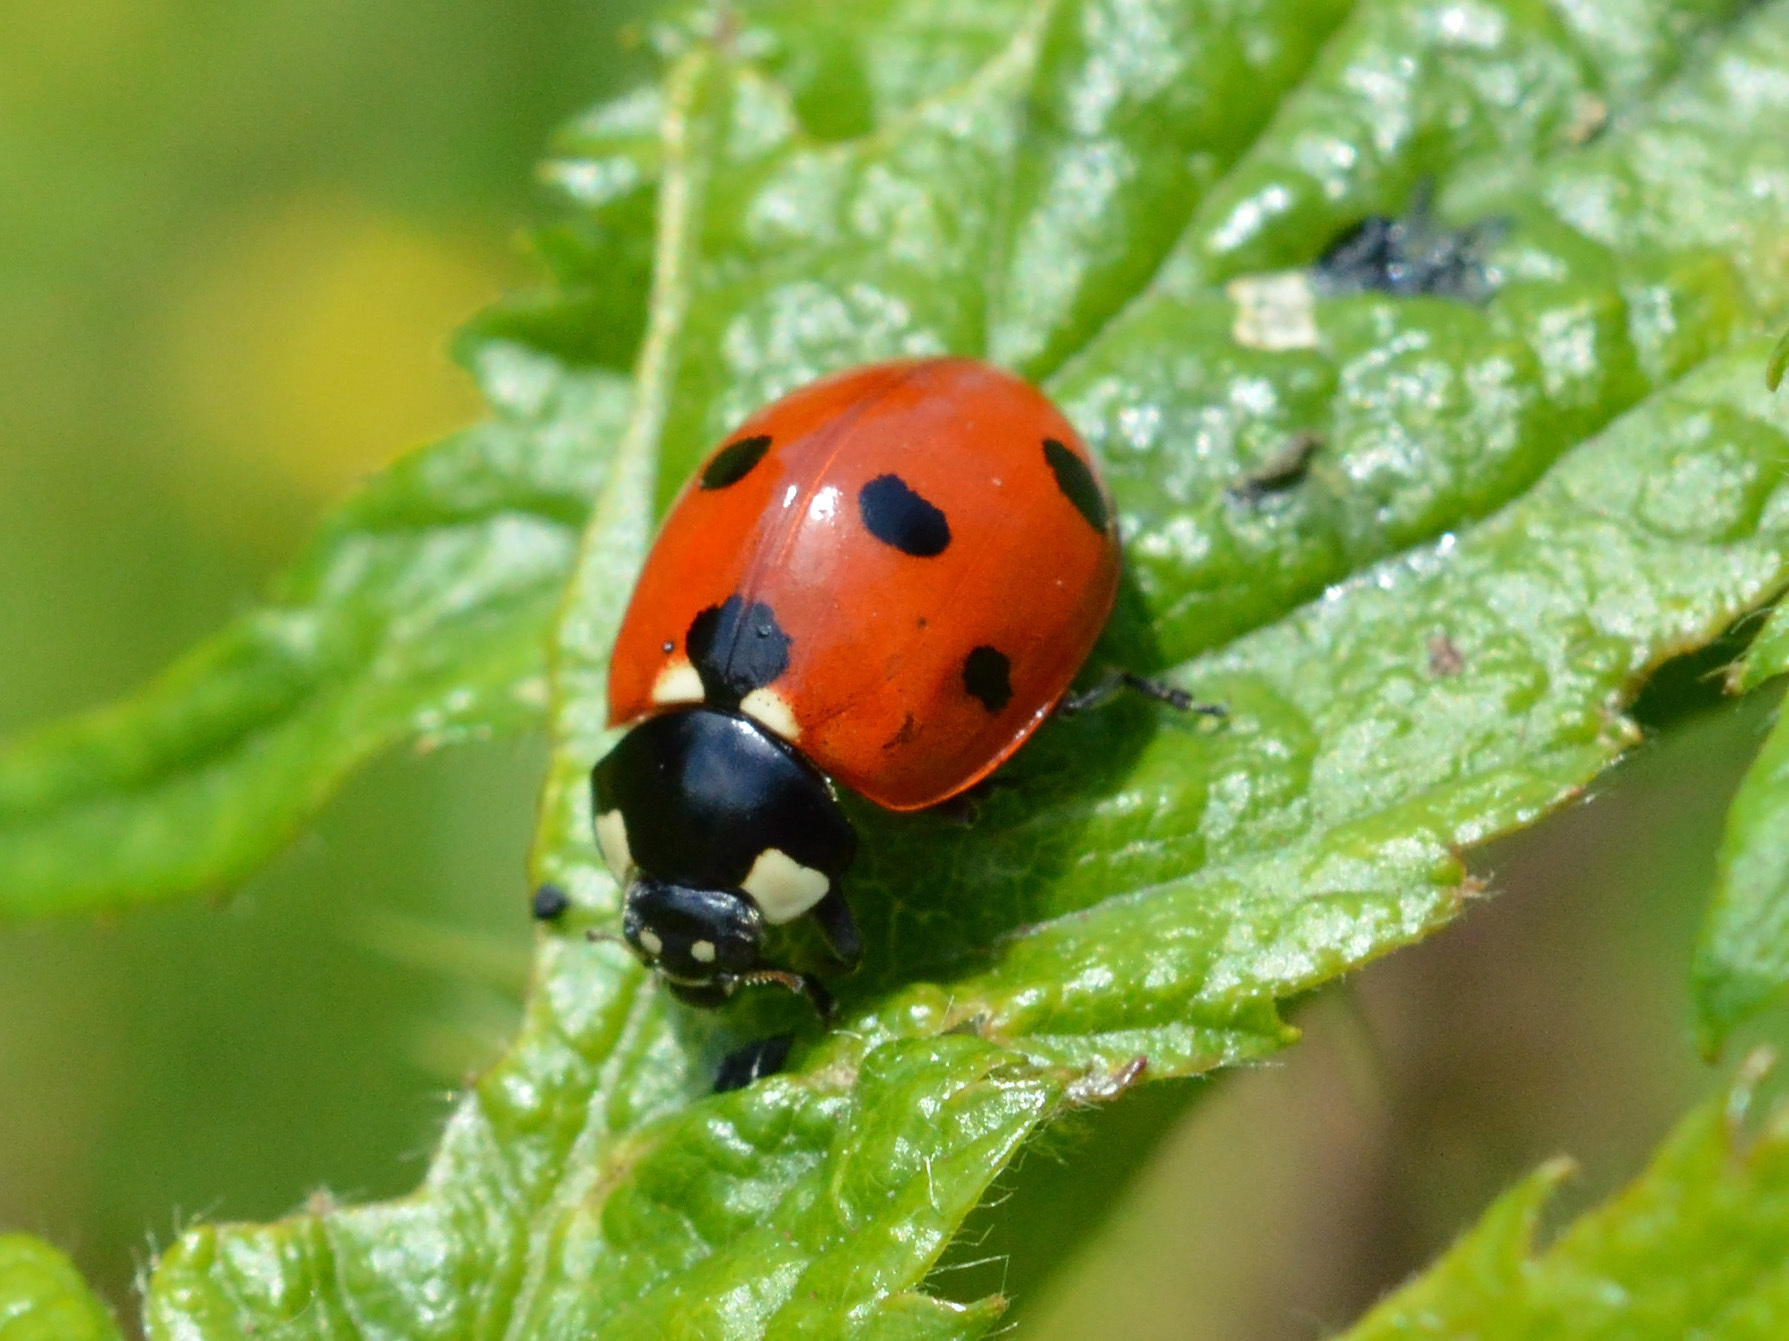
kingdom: Animalia
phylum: Arthropoda
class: Insecta
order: Coleoptera
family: Coccinellidae
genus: Coccinella
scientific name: Coccinella septempunctata
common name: Sevenspotted lady beetle
